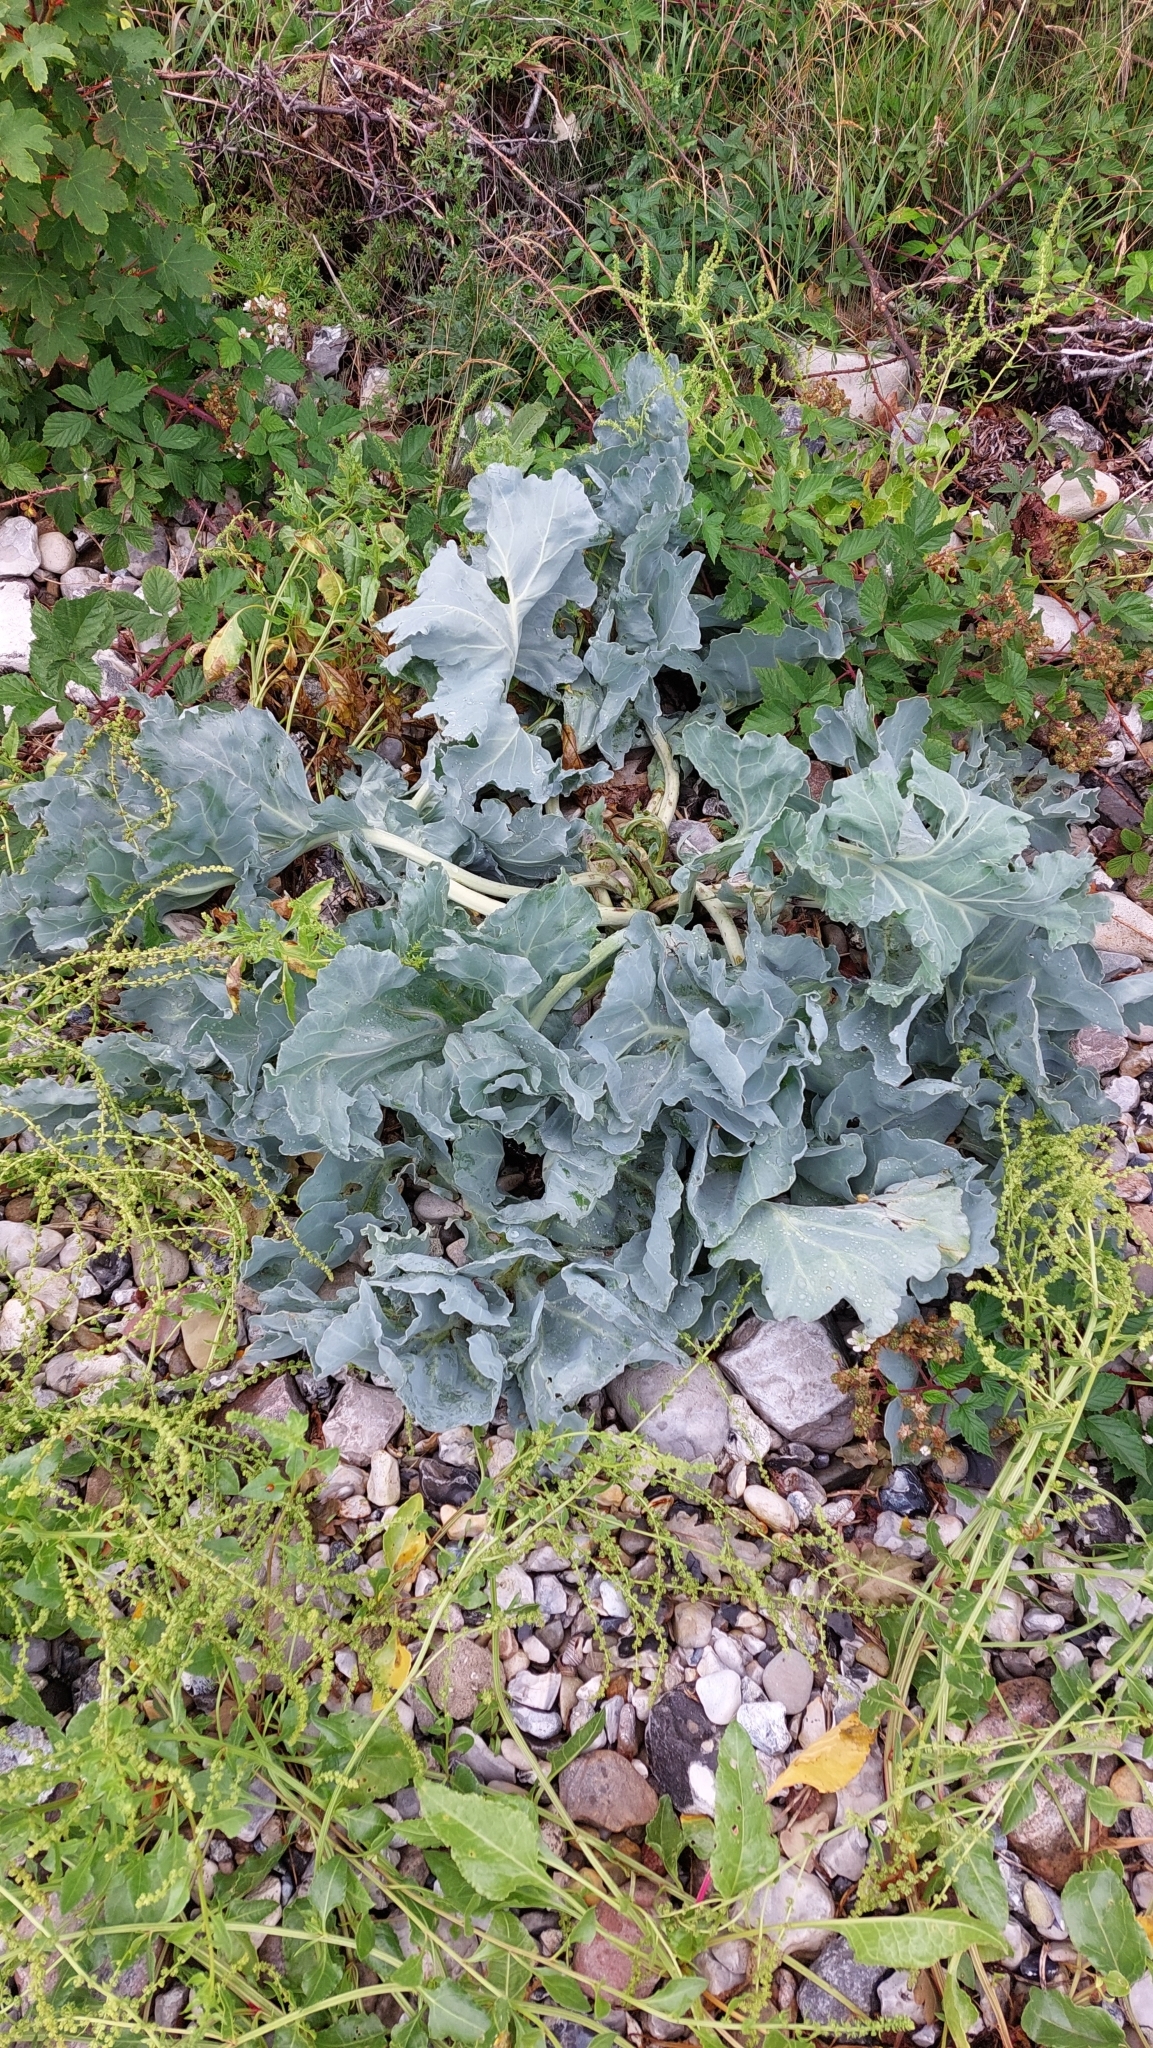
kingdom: Plantae
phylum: Tracheophyta
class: Magnoliopsida
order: Brassicales
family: Brassicaceae
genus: Crambe
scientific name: Crambe maritima
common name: Sea-kale
